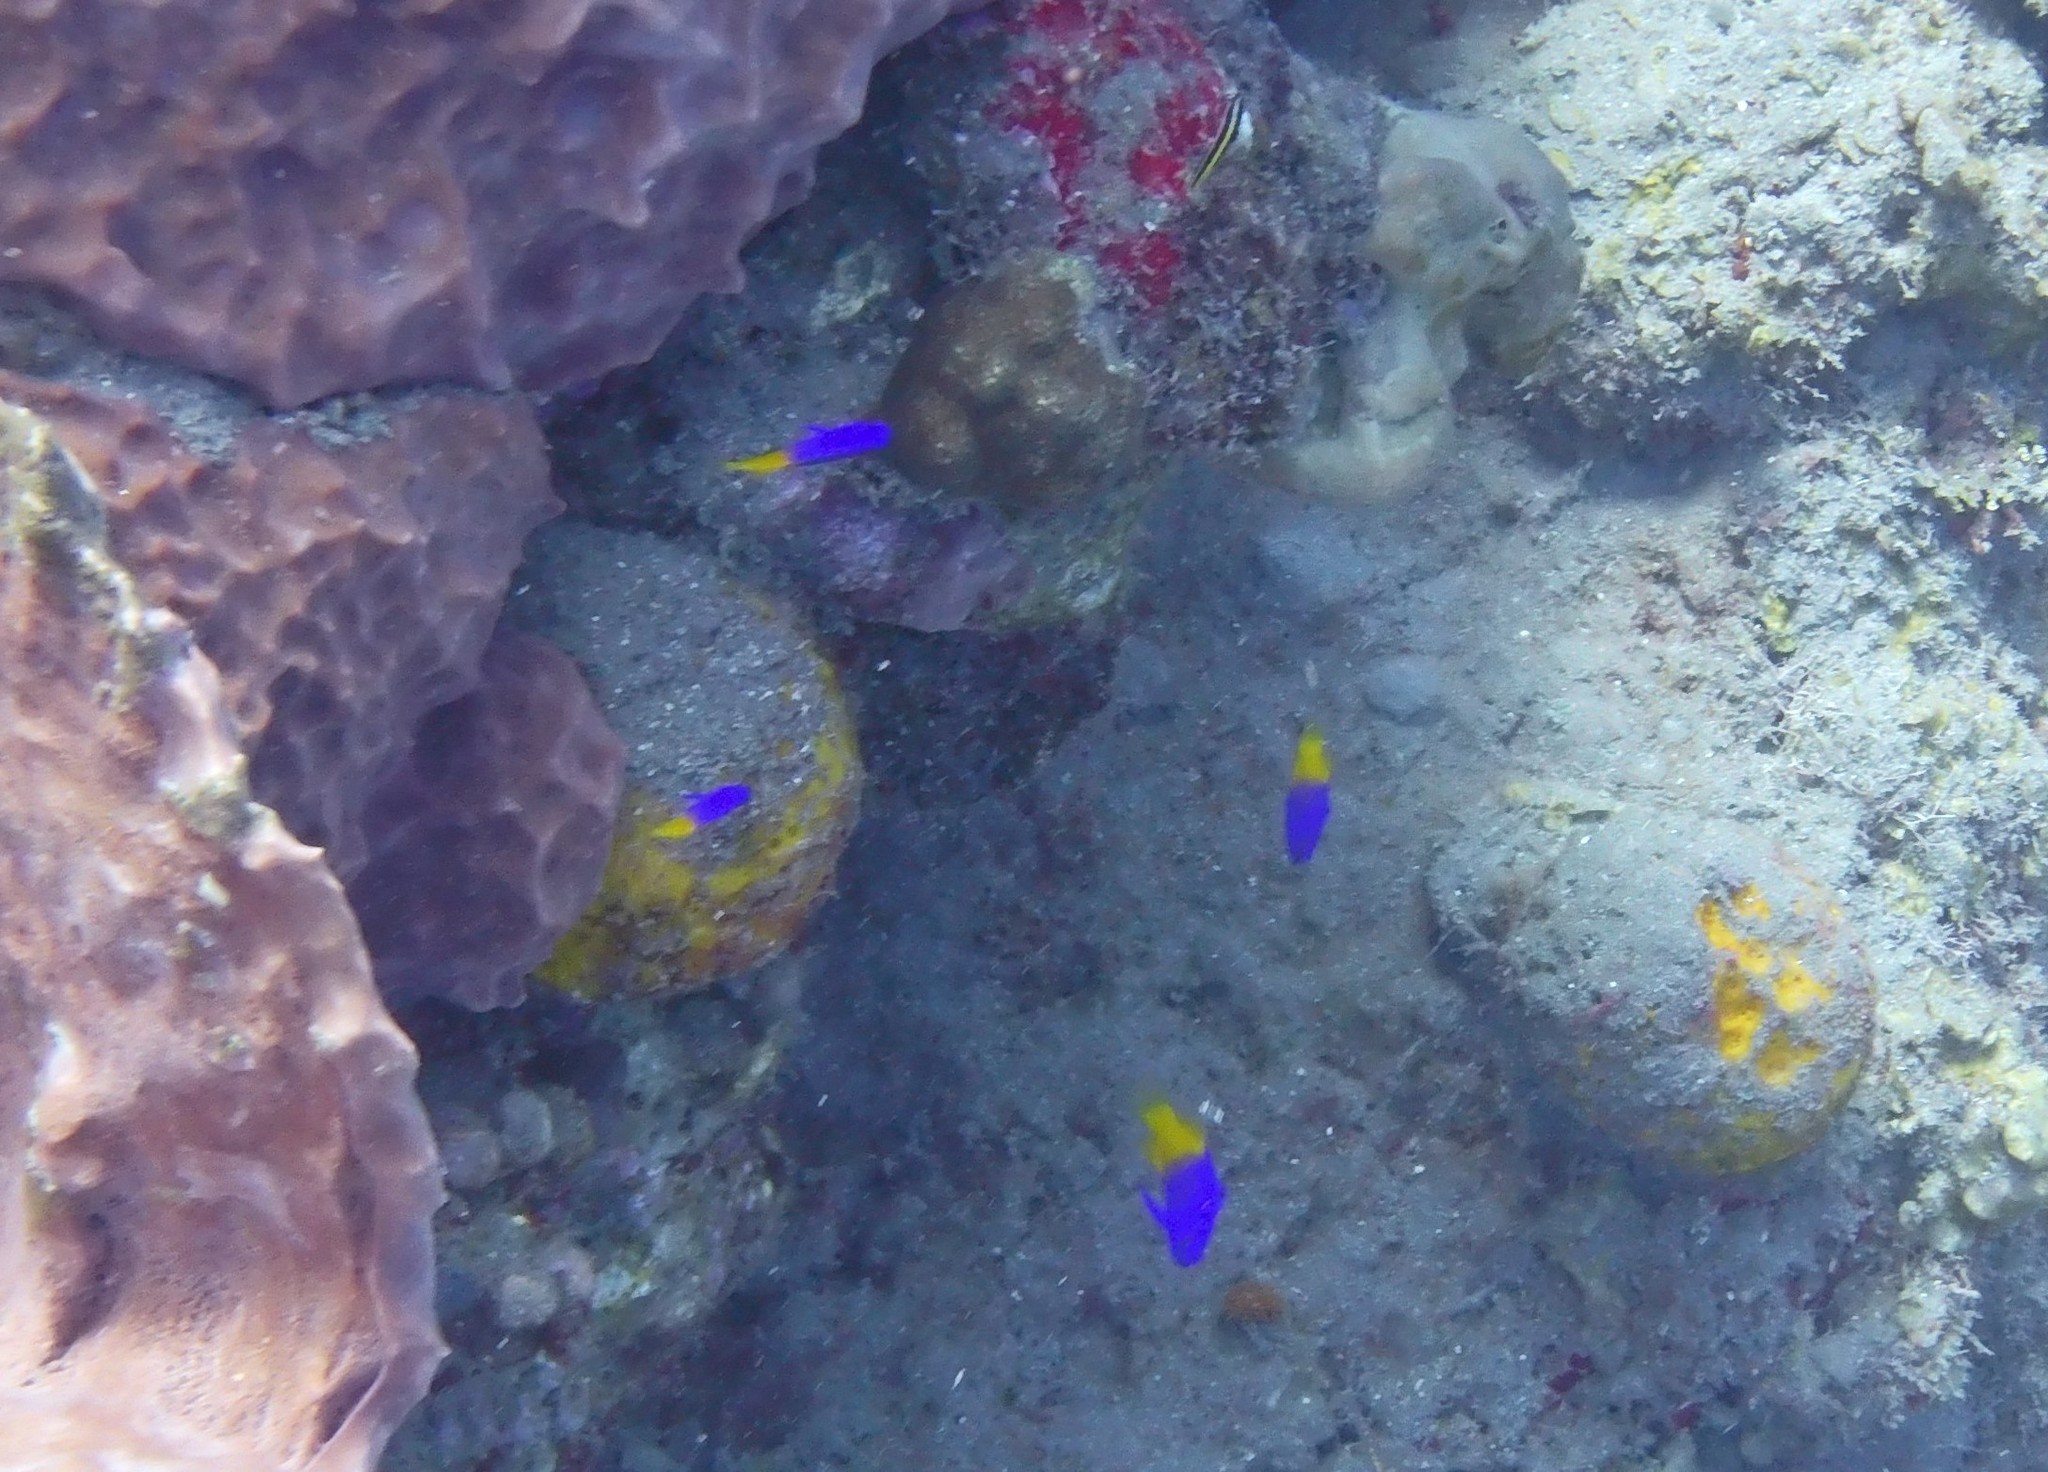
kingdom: Animalia
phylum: Chordata
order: Perciformes
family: Grammatidae
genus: Gramma
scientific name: Gramma loreto
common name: Fairy basslet
